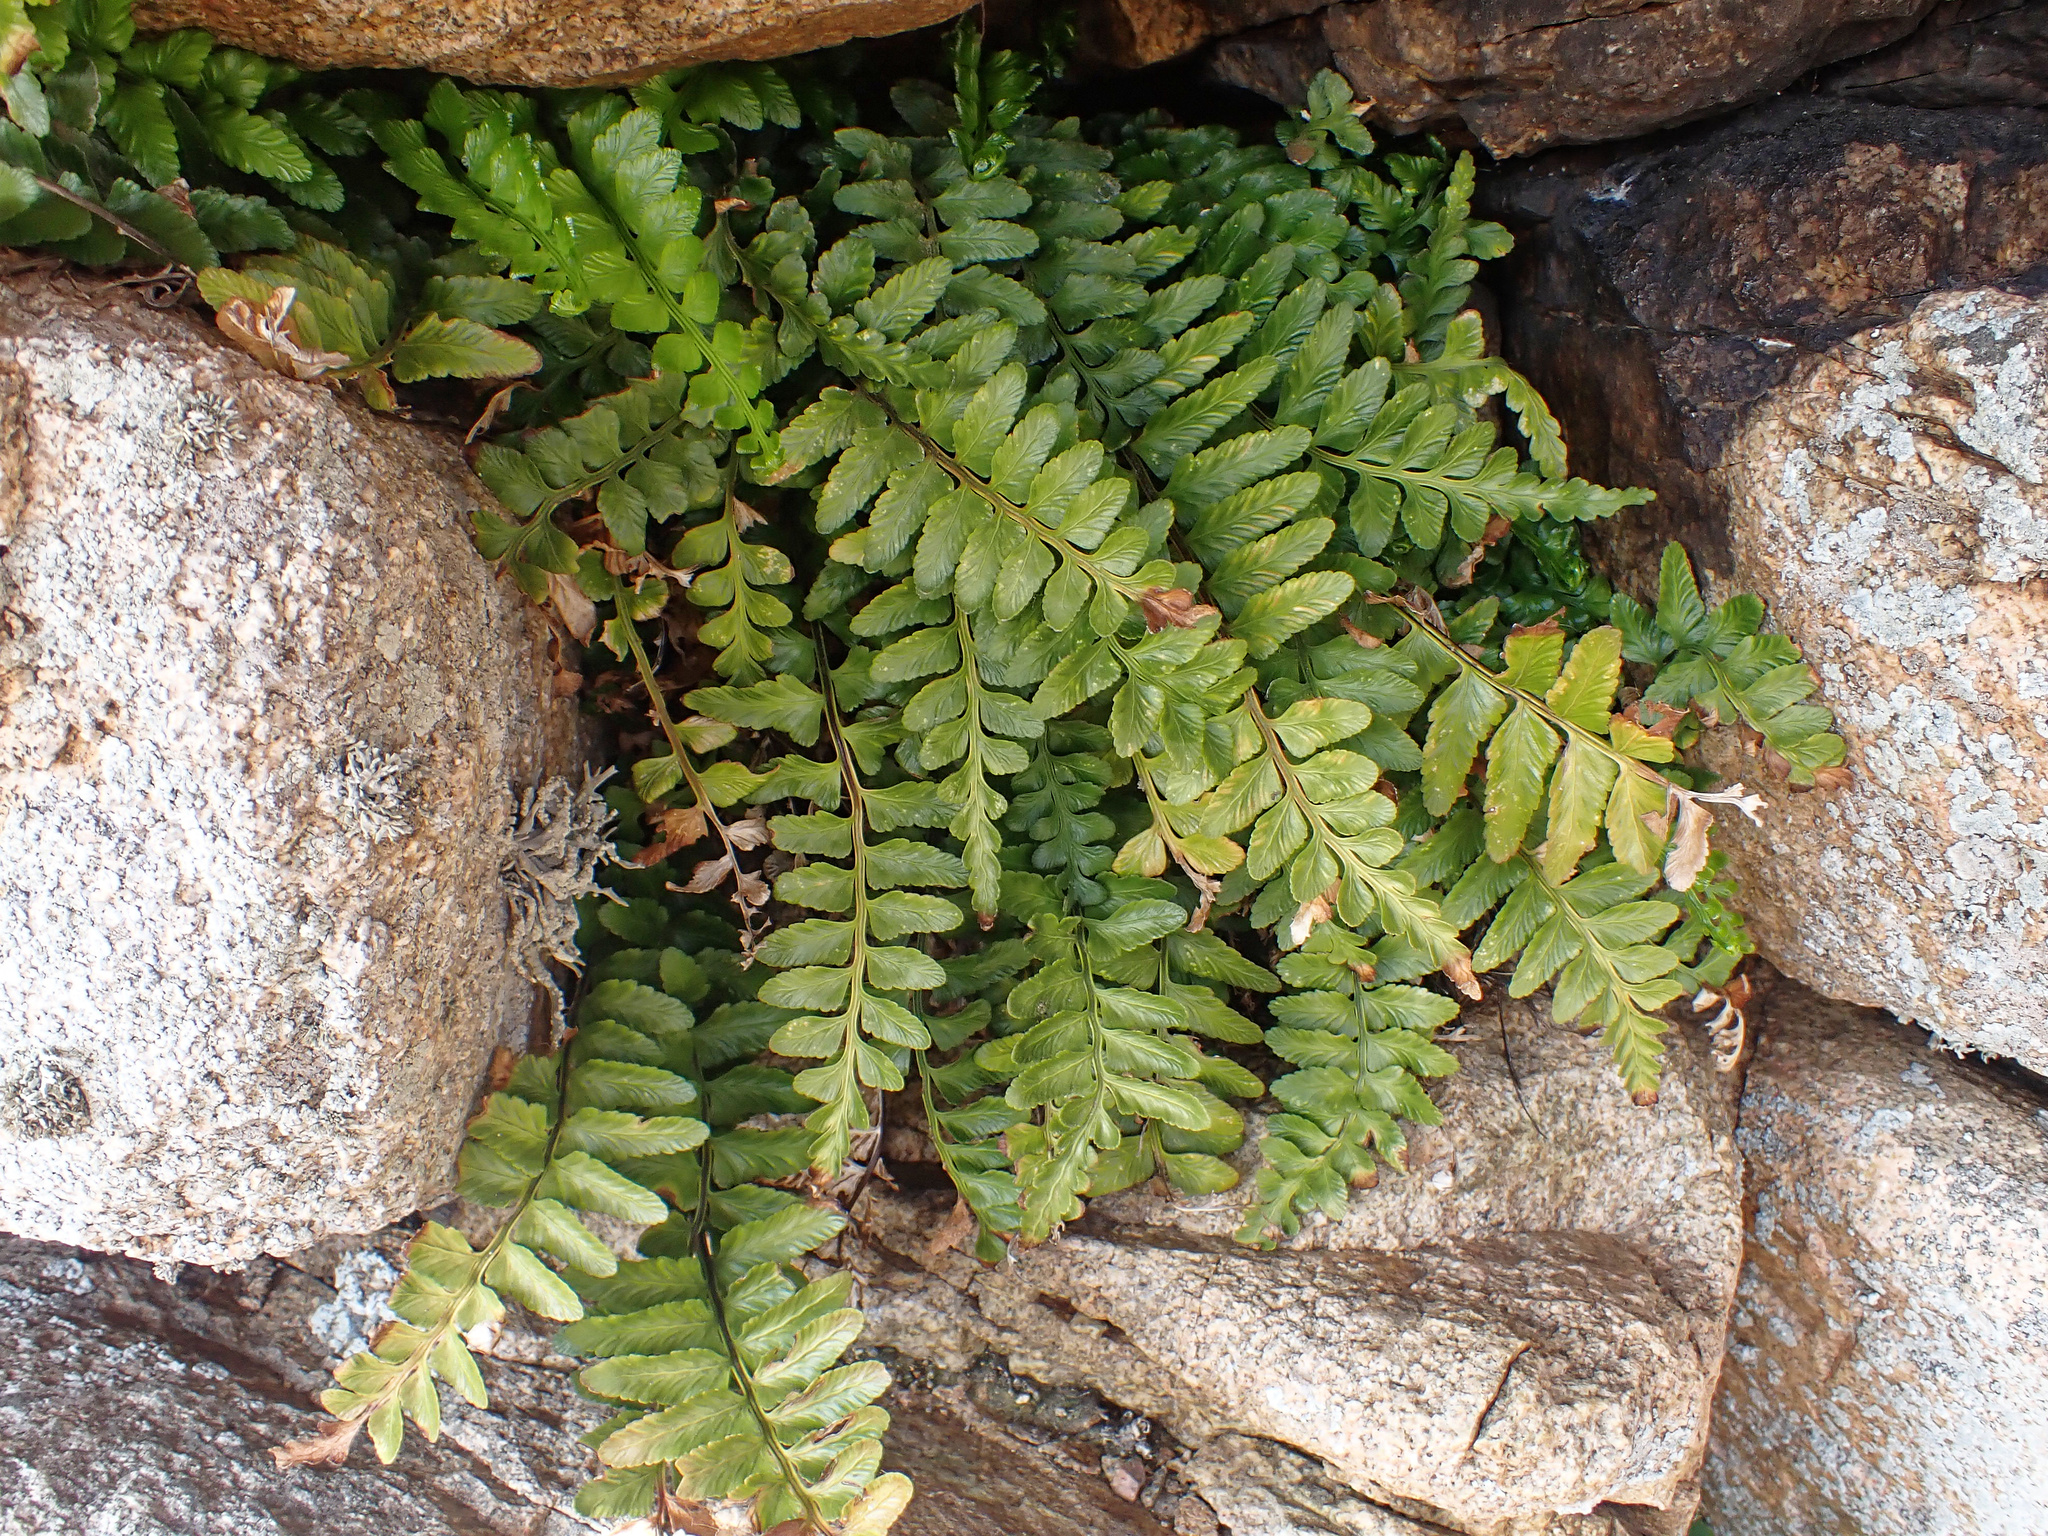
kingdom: Plantae
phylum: Tracheophyta
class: Polypodiopsida
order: Polypodiales
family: Aspleniaceae
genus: Asplenium
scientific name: Asplenium marinum
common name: Sea spleenwort
